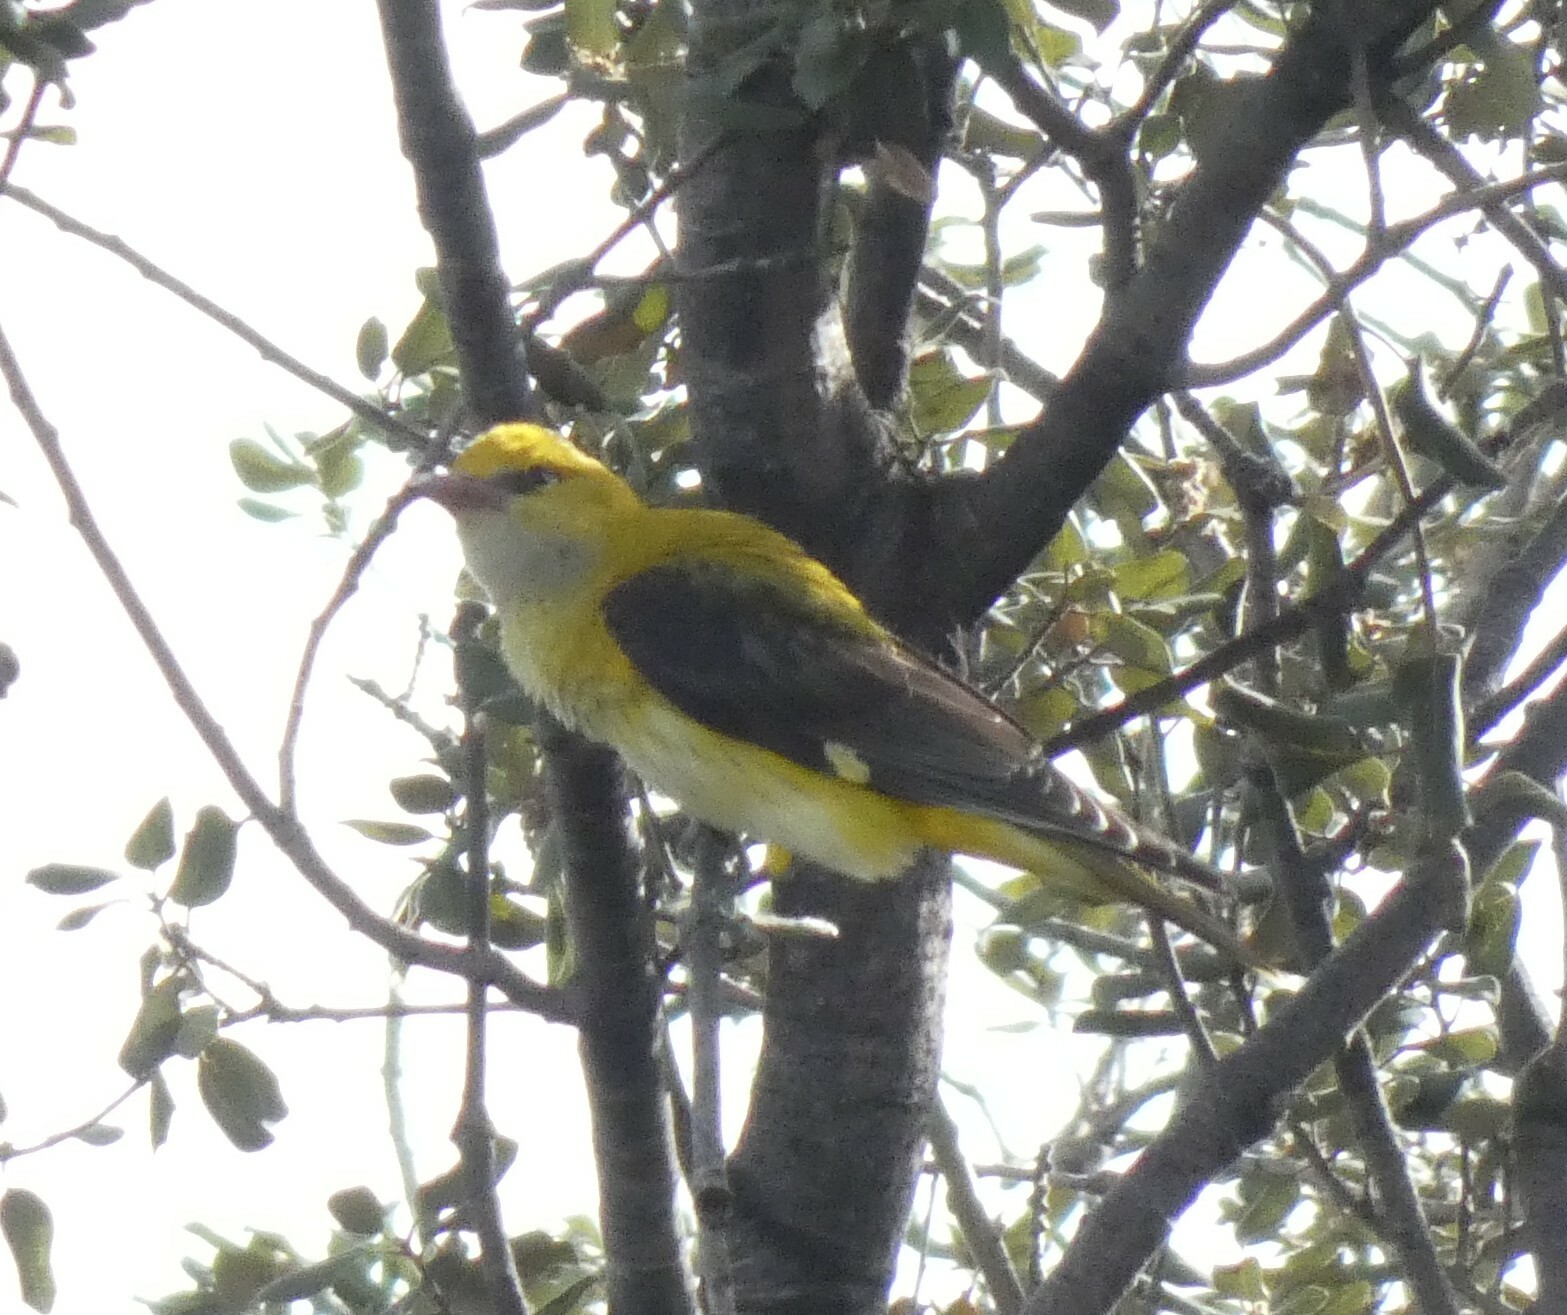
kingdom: Animalia
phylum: Chordata
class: Aves
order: Passeriformes
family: Oriolidae
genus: Oriolus
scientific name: Oriolus oriolus
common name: Eurasian golden oriole
